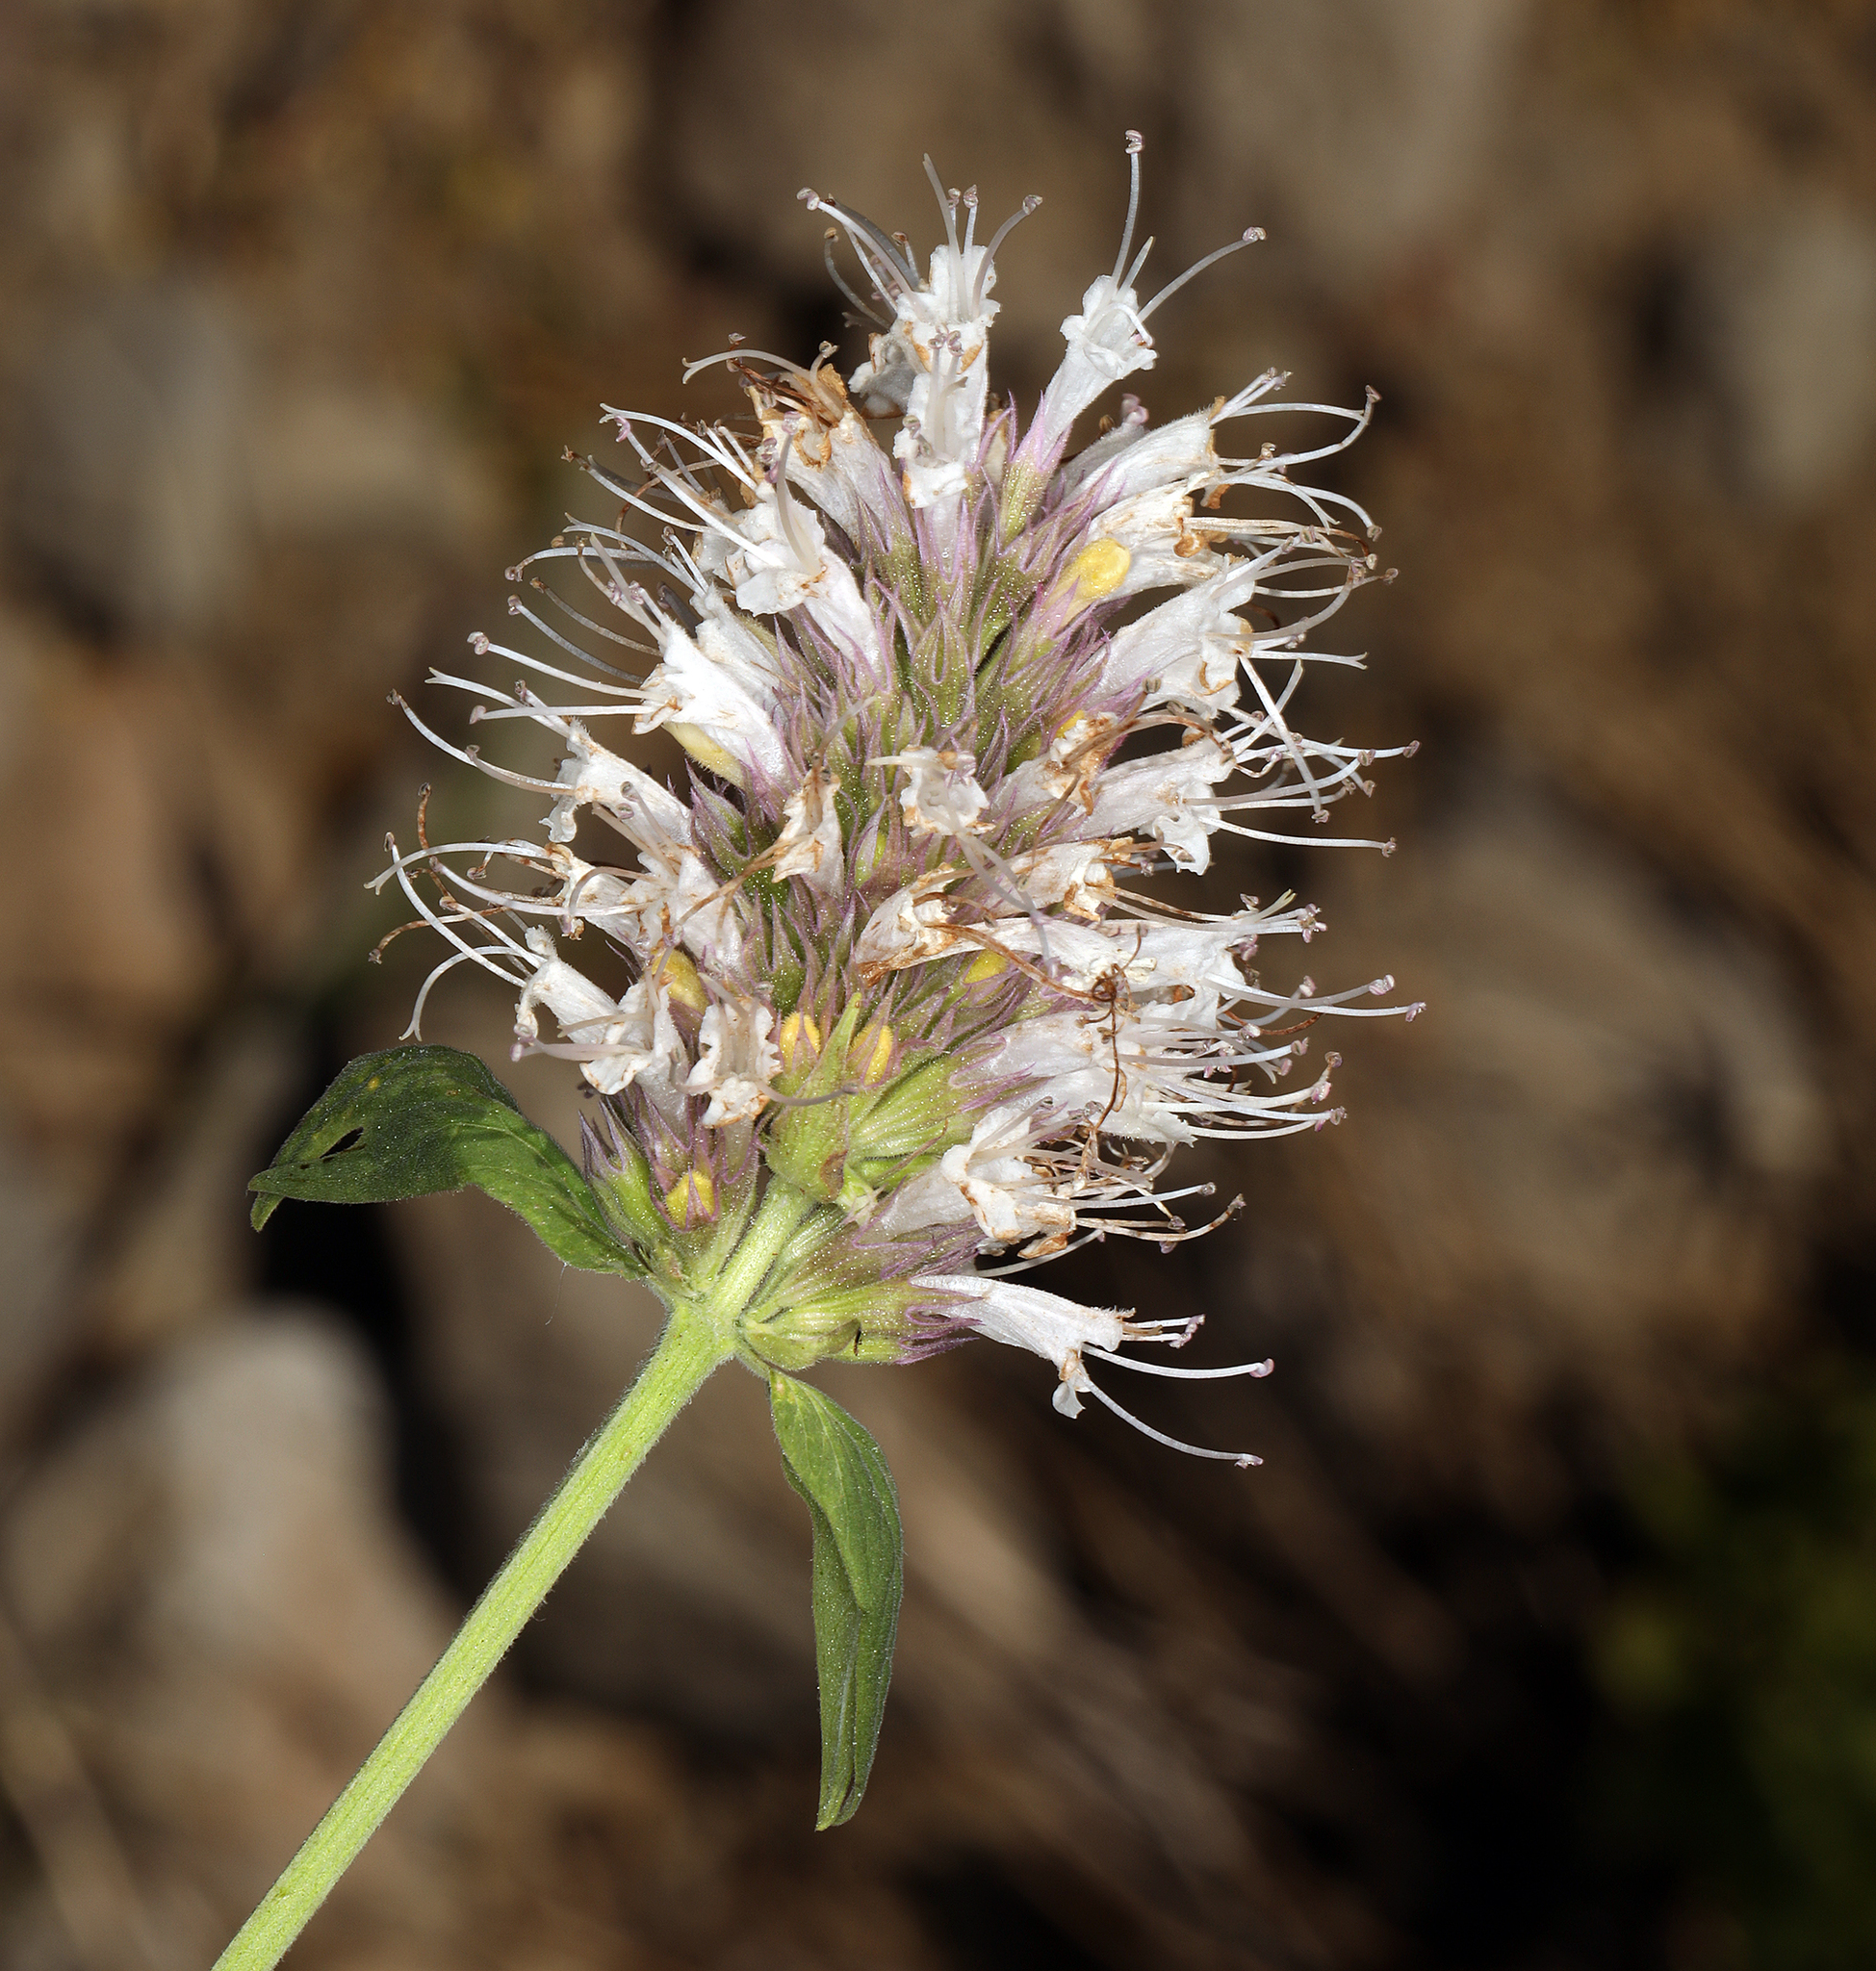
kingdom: Plantae
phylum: Tracheophyta
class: Magnoliopsida
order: Lamiales
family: Lamiaceae
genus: Agastache
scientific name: Agastache urticifolia
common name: Horsemint giant hyssop
